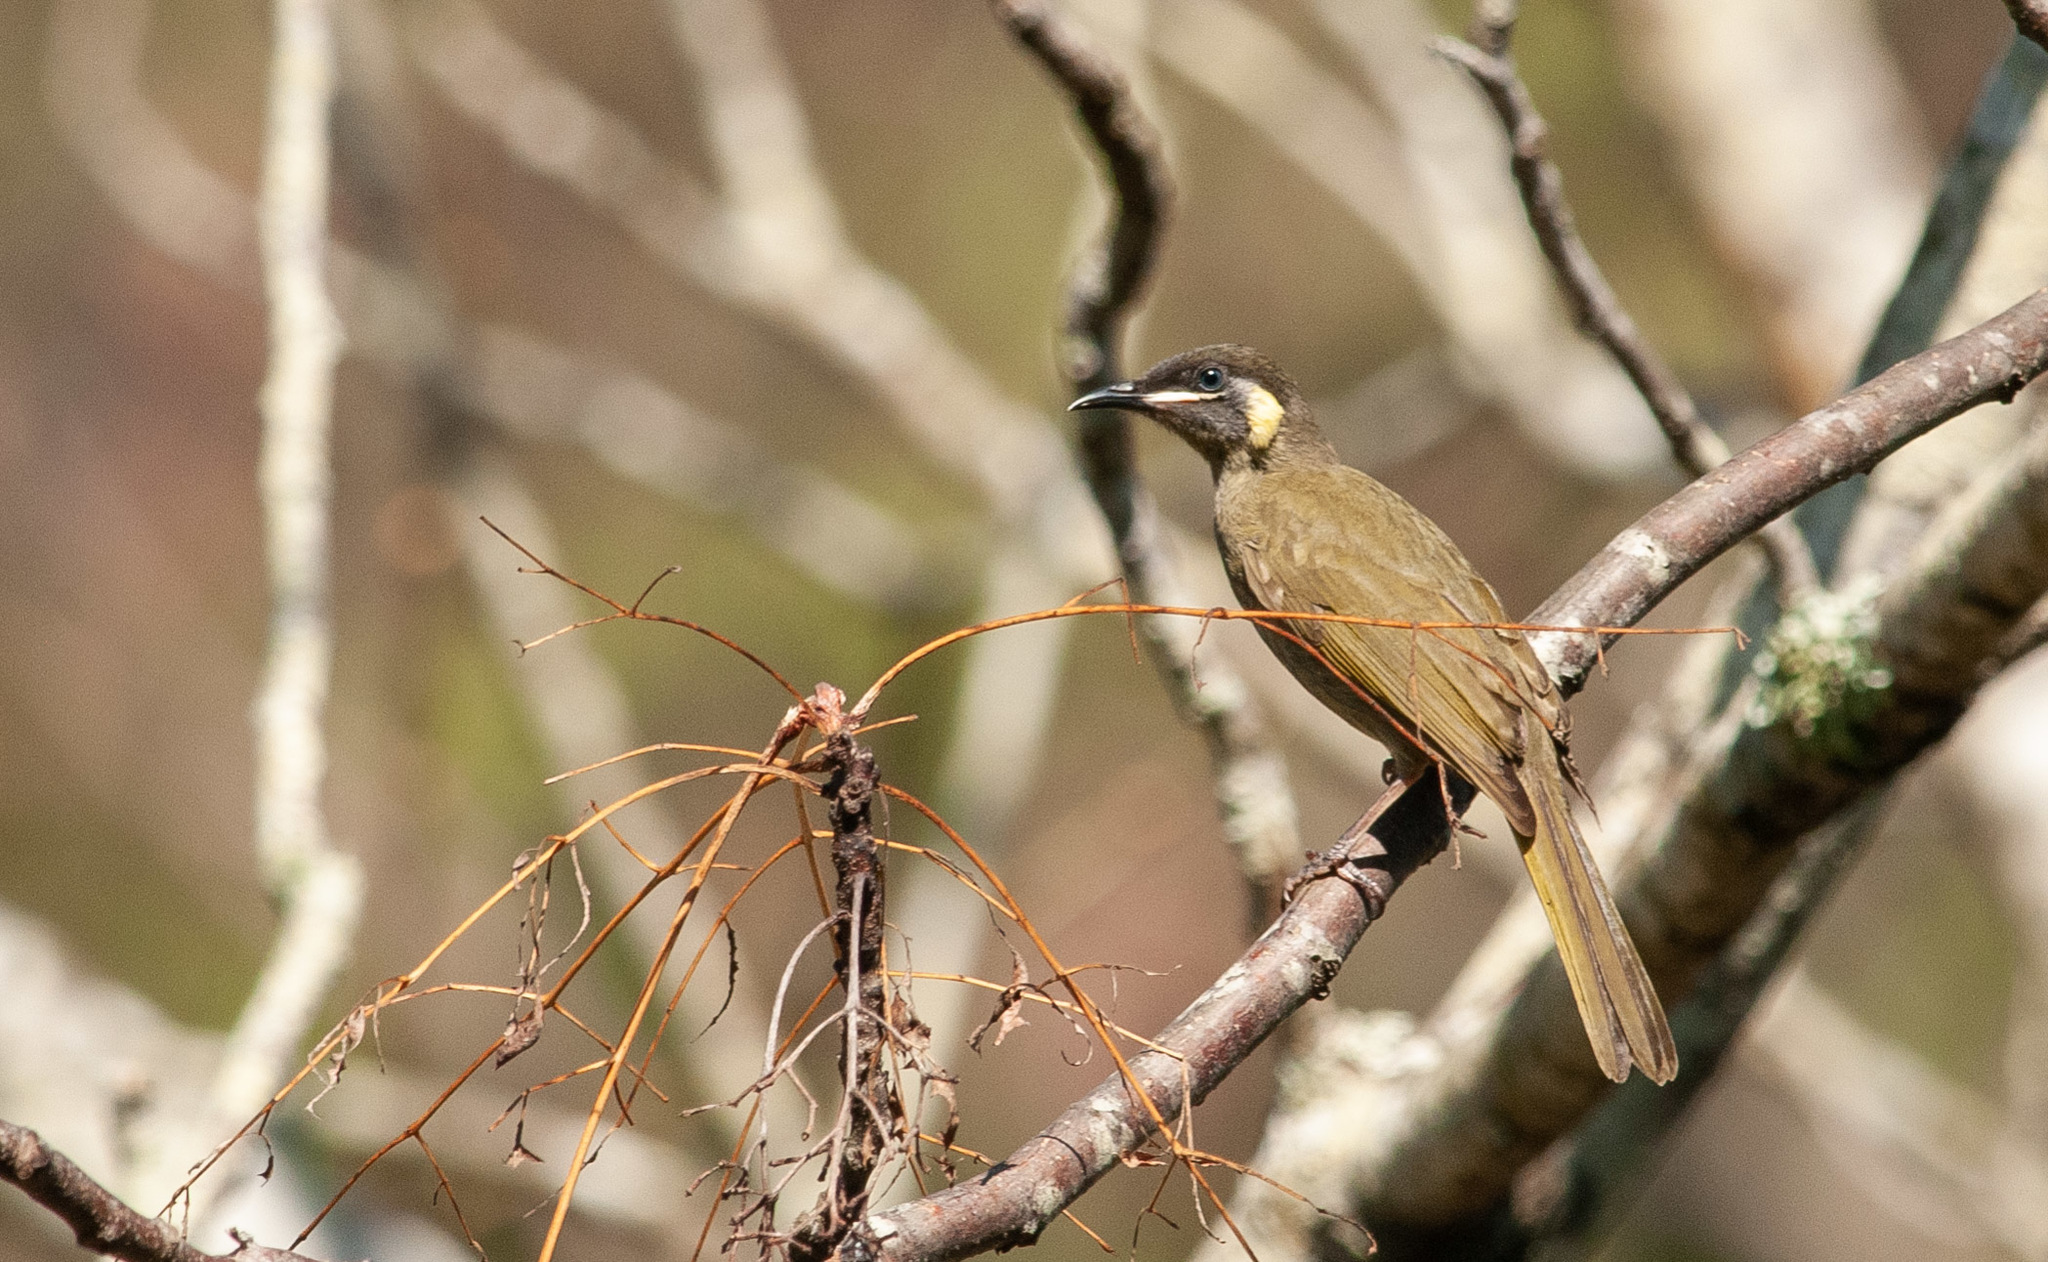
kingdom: Animalia
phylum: Chordata
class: Aves
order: Passeriformes
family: Meliphagidae
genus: Meliphaga
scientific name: Meliphaga lewinii
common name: Lewin's honeyeater
